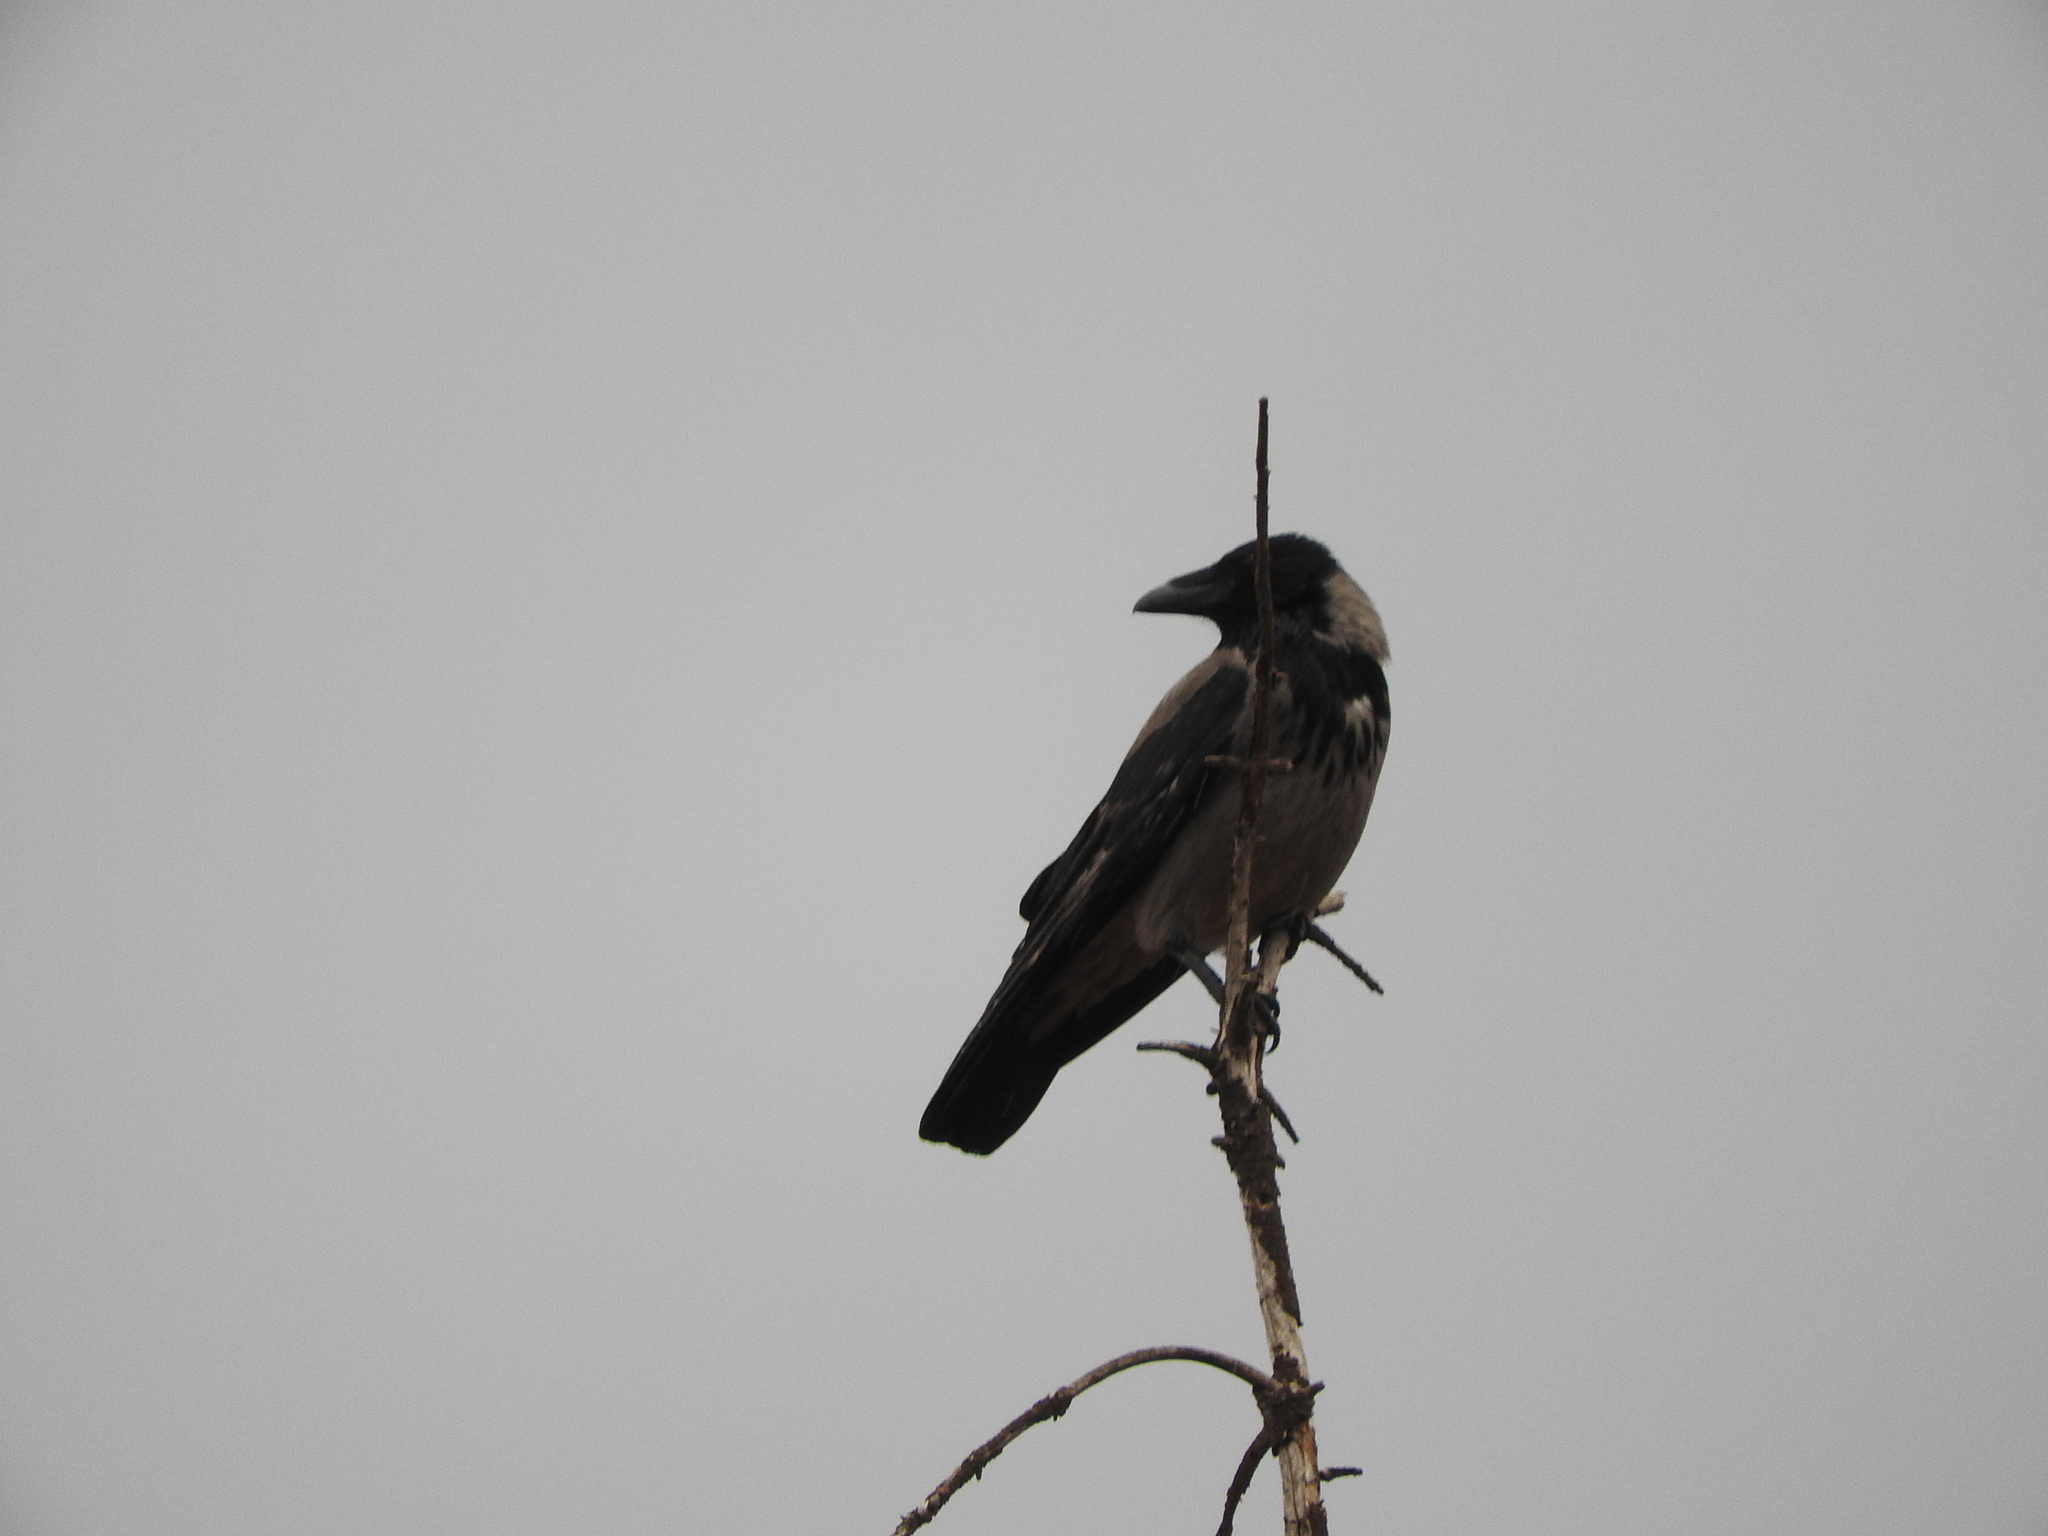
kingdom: Animalia
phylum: Chordata
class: Aves
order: Passeriformes
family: Corvidae
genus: Corvus
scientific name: Corvus cornix
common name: Hooded crow
